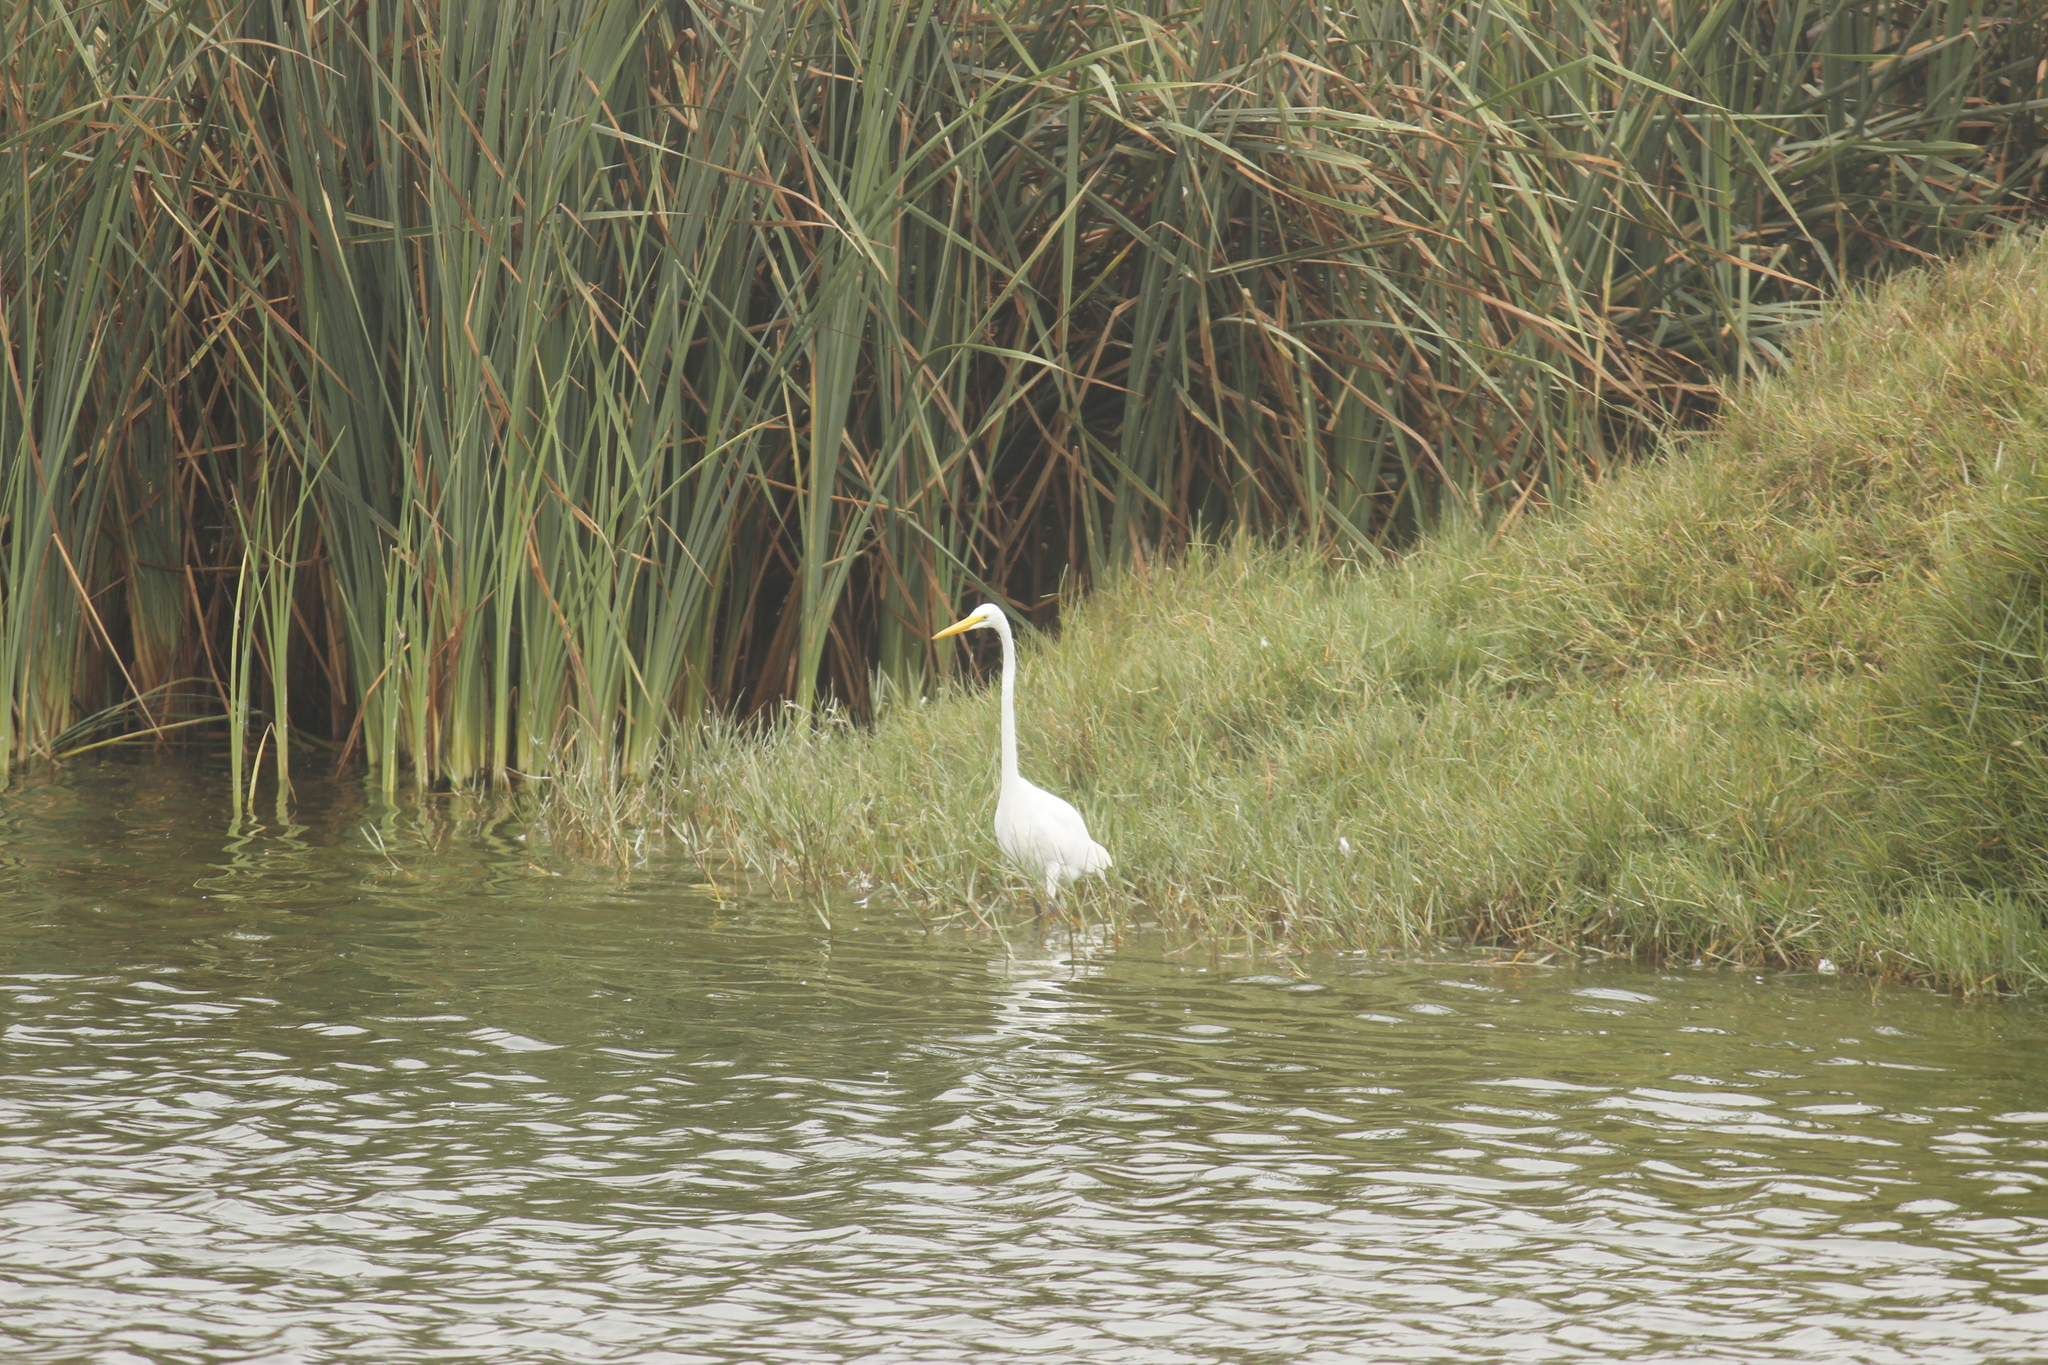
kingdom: Animalia
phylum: Chordata
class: Aves
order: Pelecaniformes
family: Ardeidae
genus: Ardea
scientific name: Ardea alba
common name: Great egret
